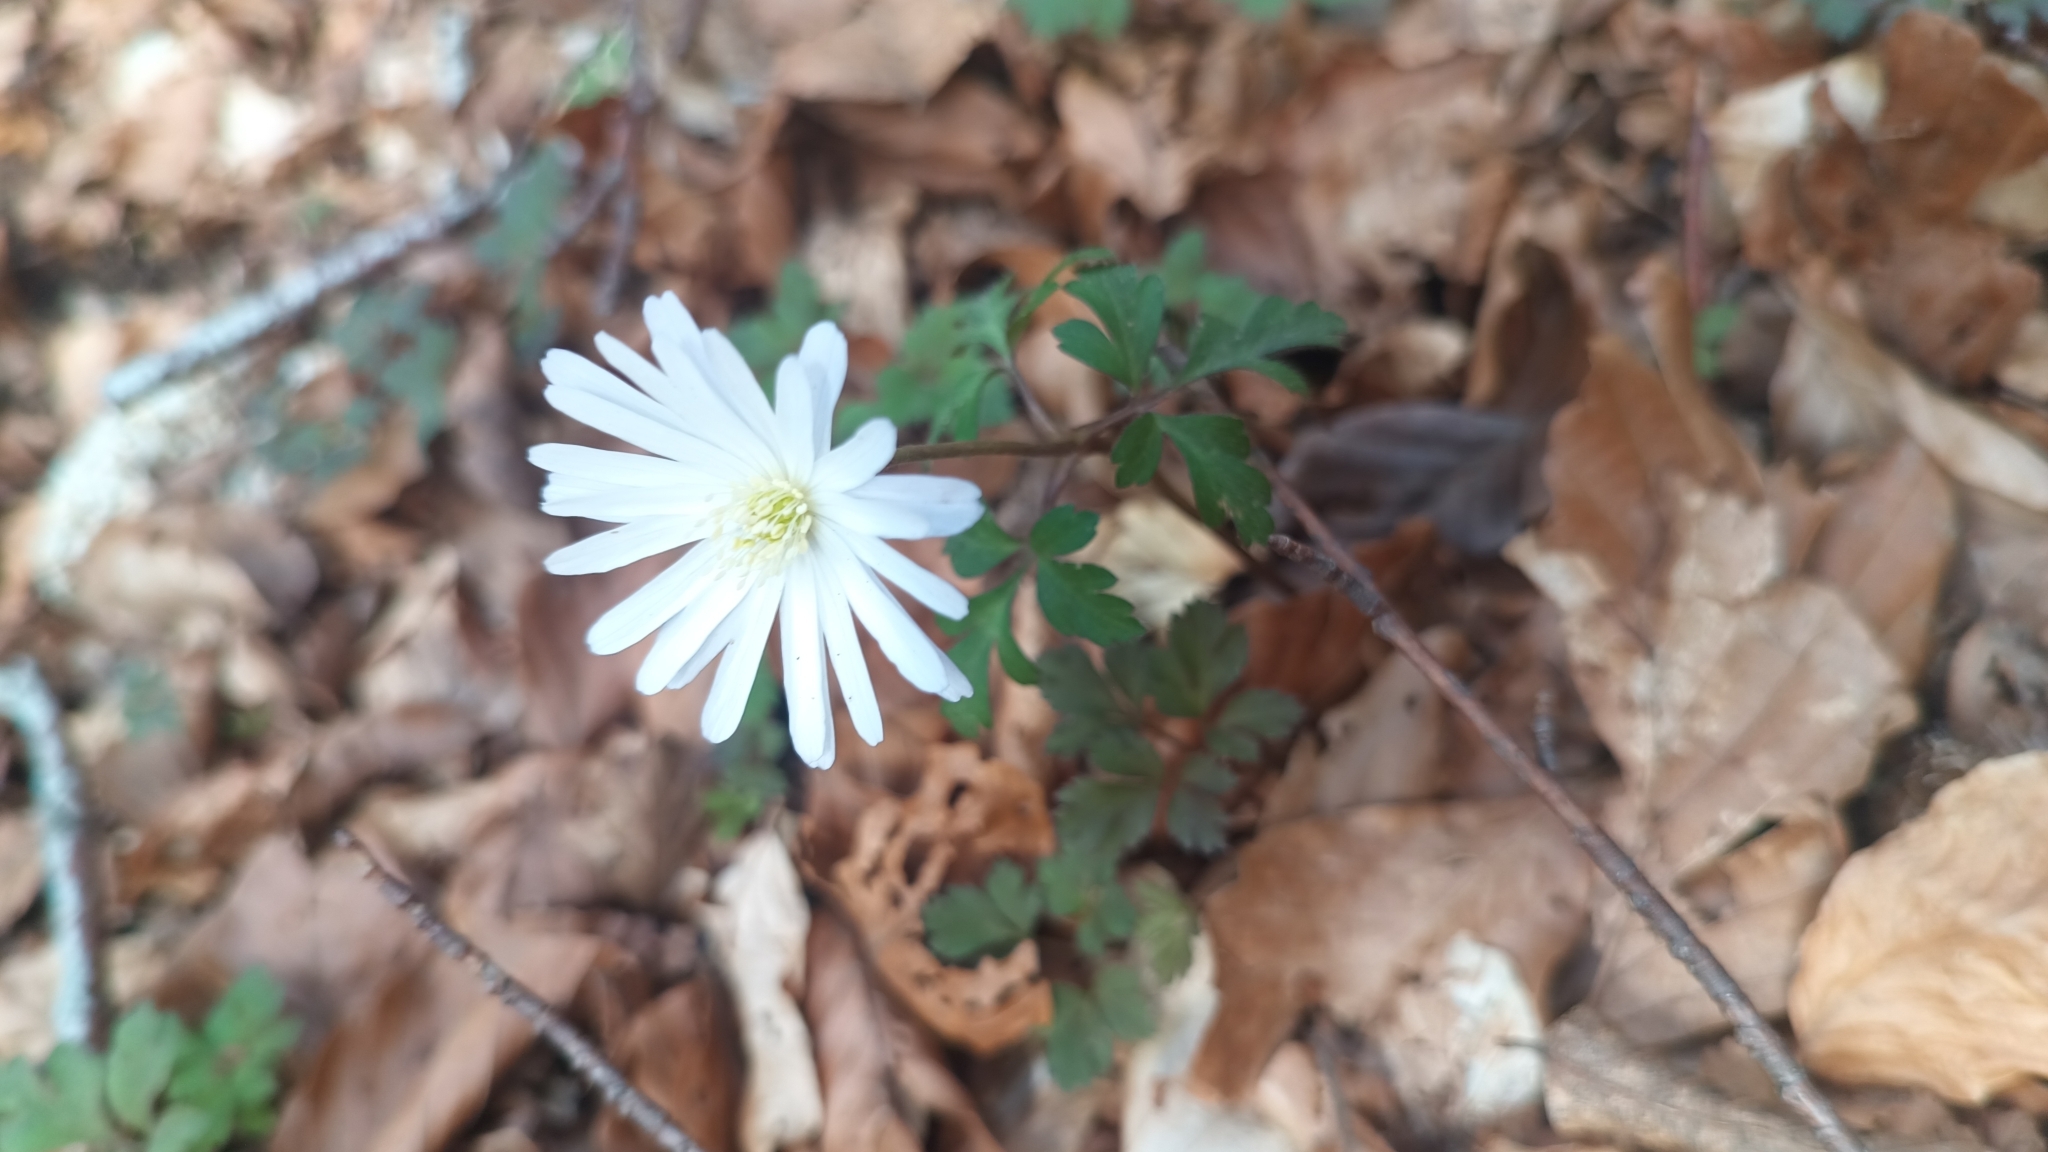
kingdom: Plantae
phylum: Tracheophyta
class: Magnoliopsida
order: Ranunculales
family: Ranunculaceae
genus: Anemone
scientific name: Anemone apennina
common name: Blue anemone
